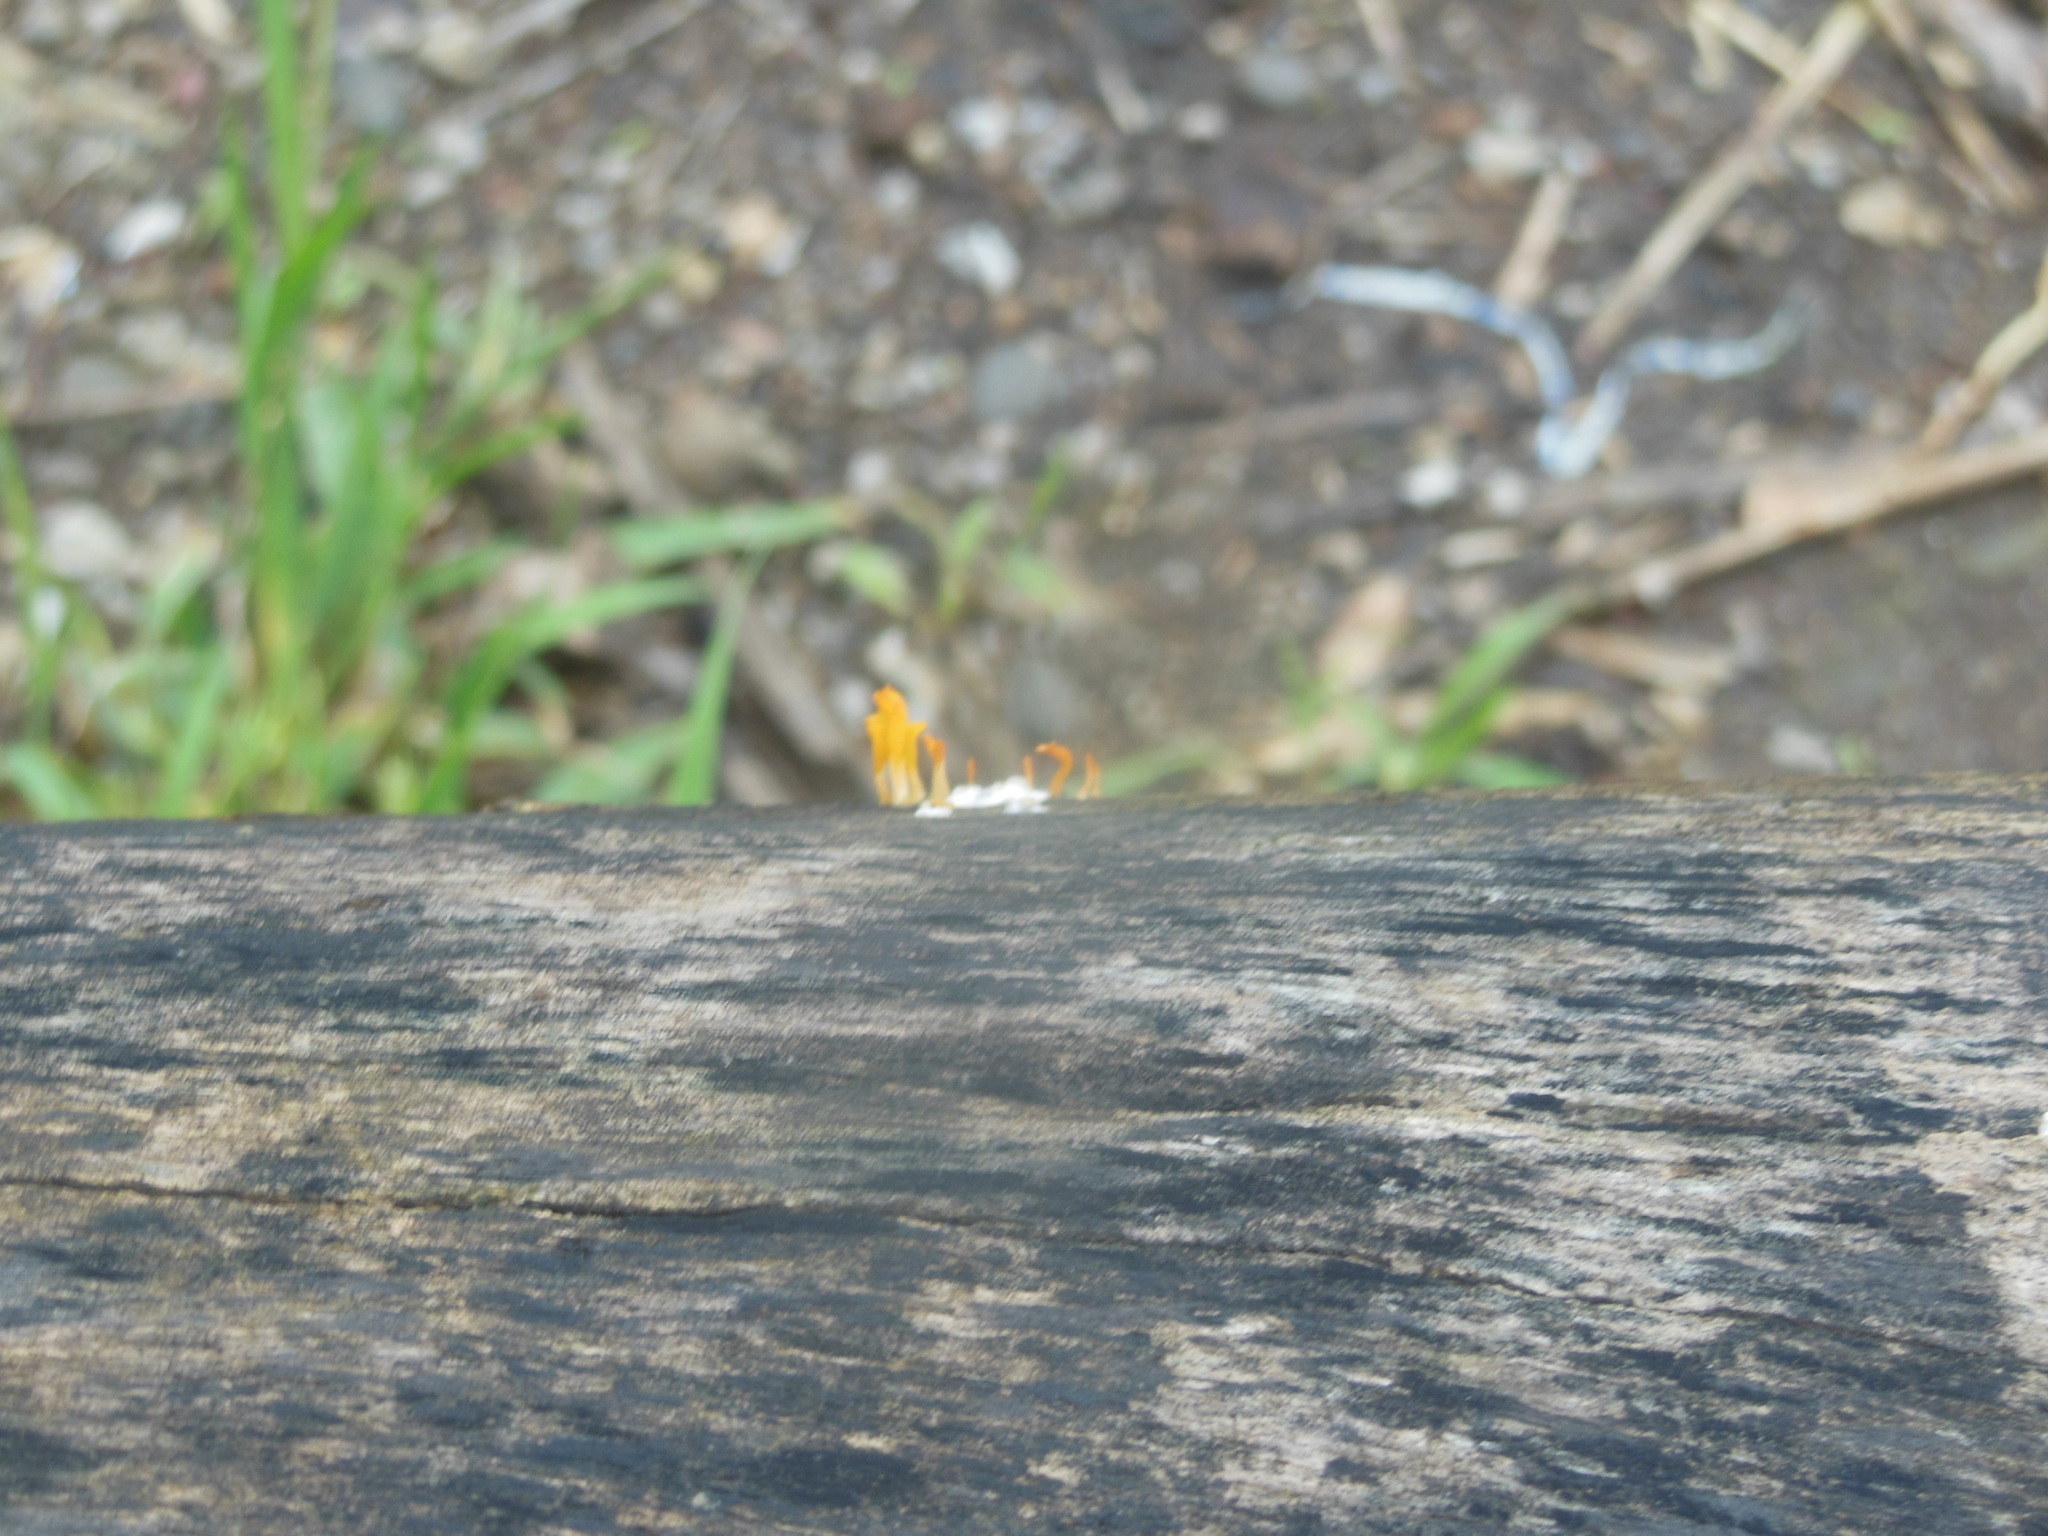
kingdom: Fungi
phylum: Basidiomycota
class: Dacrymycetes
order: Dacrymycetales
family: Dacrymycetaceae
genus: Dacrymyces
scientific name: Dacrymyces spathularius
